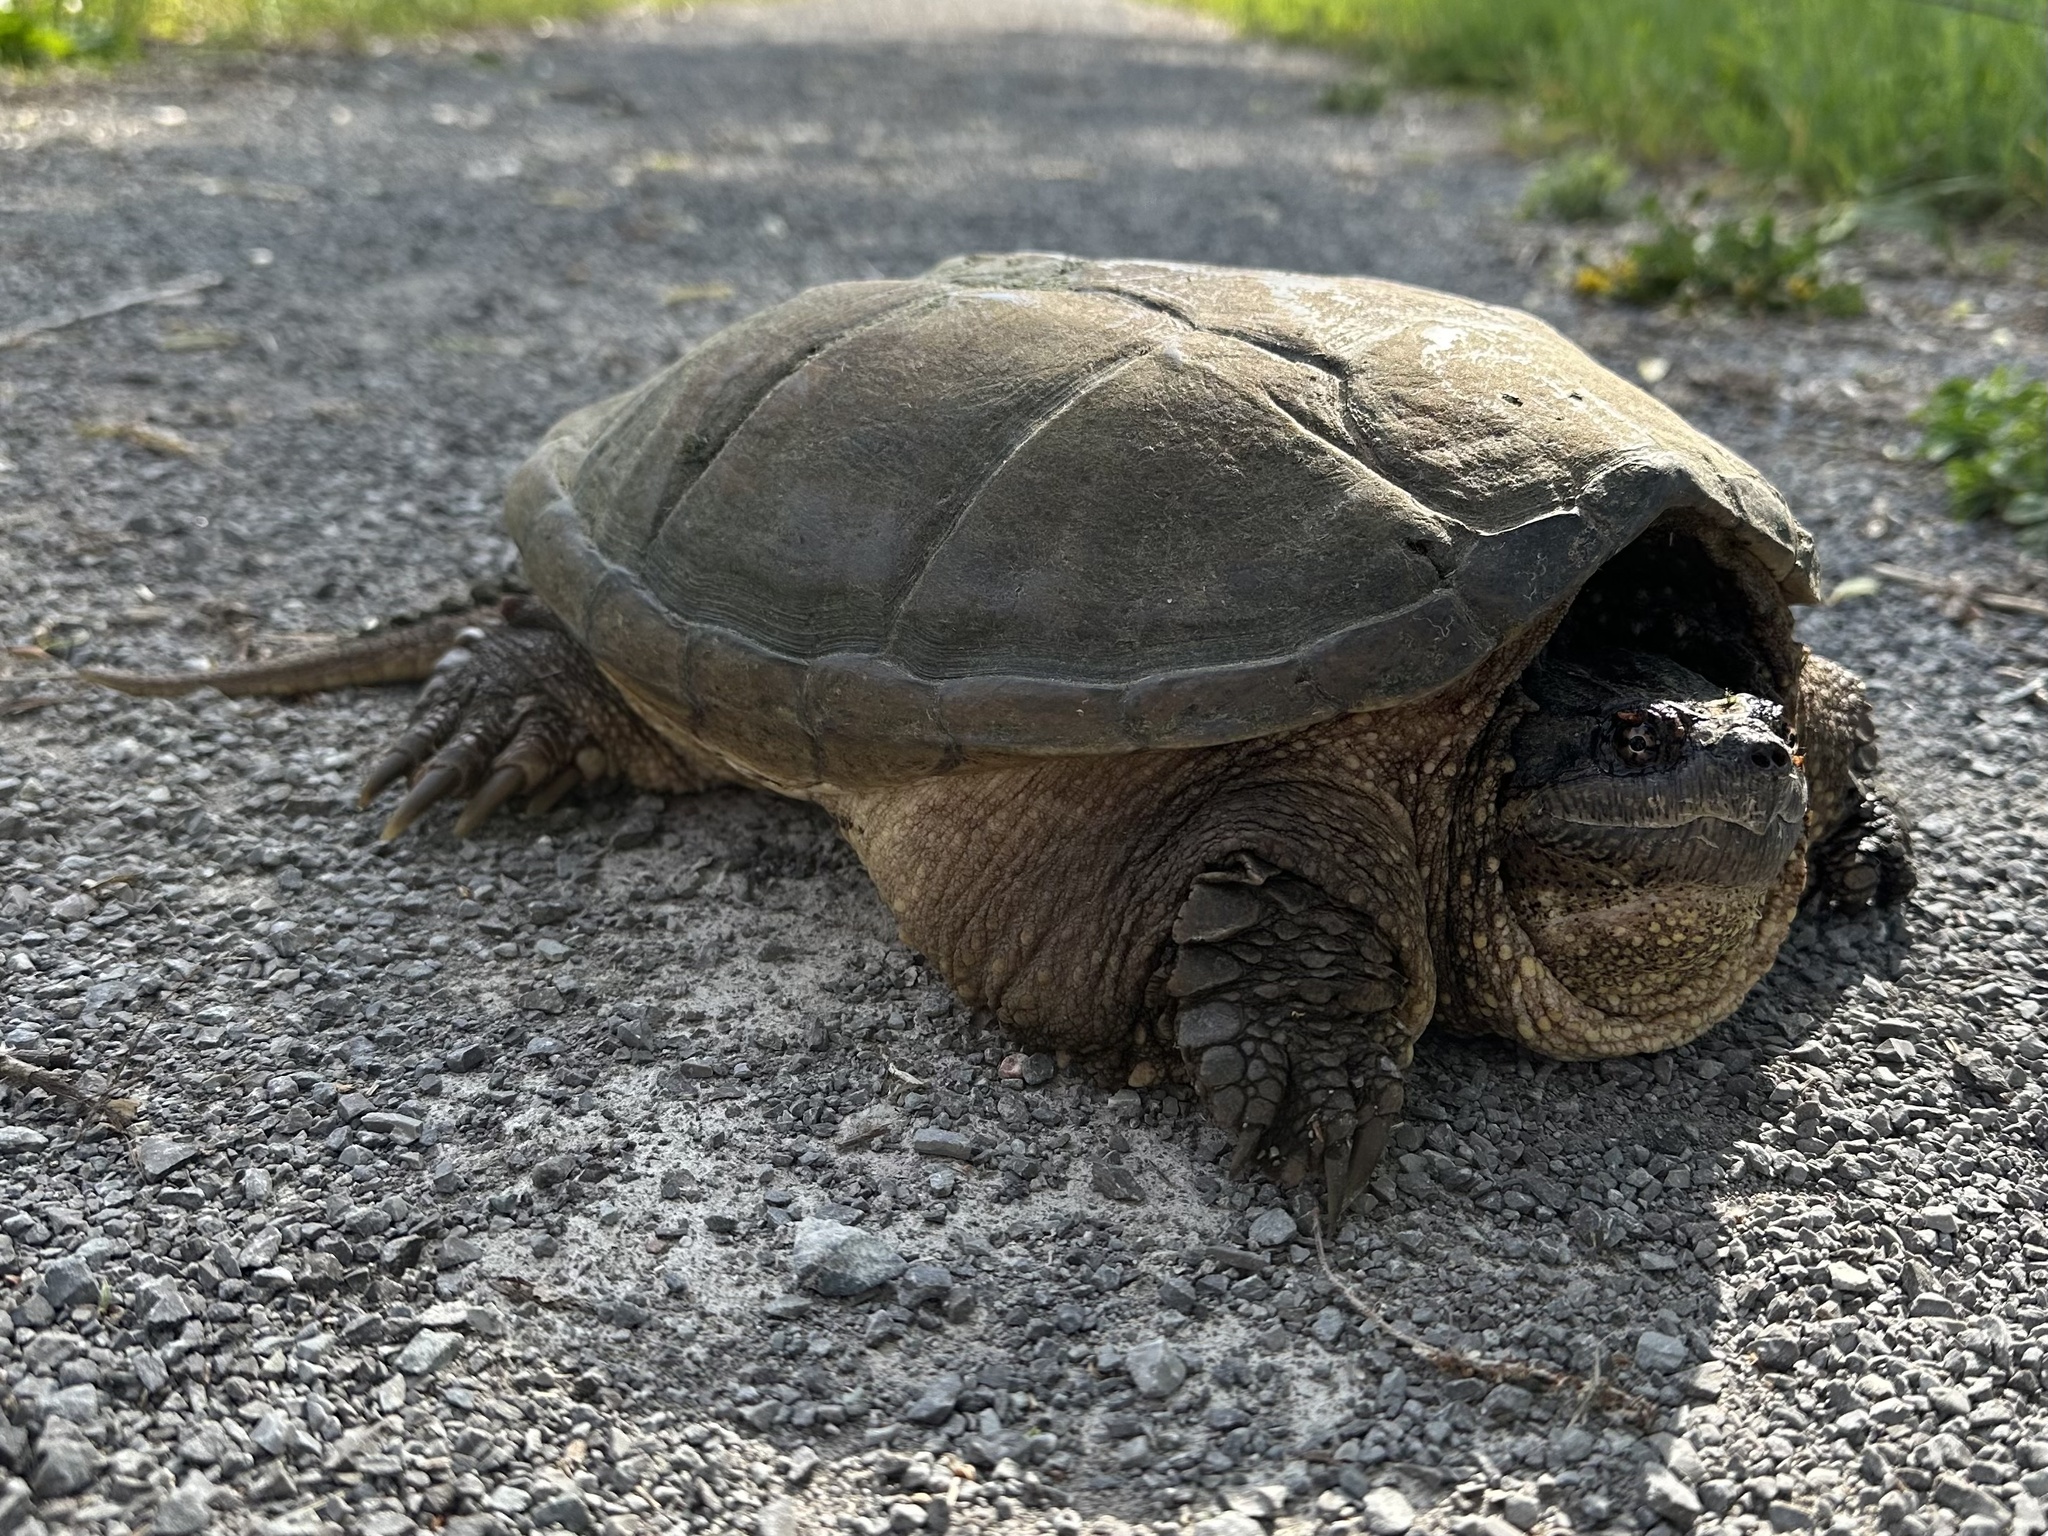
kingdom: Animalia
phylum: Chordata
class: Testudines
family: Chelydridae
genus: Chelydra
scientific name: Chelydra serpentina
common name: Common snapping turtle
